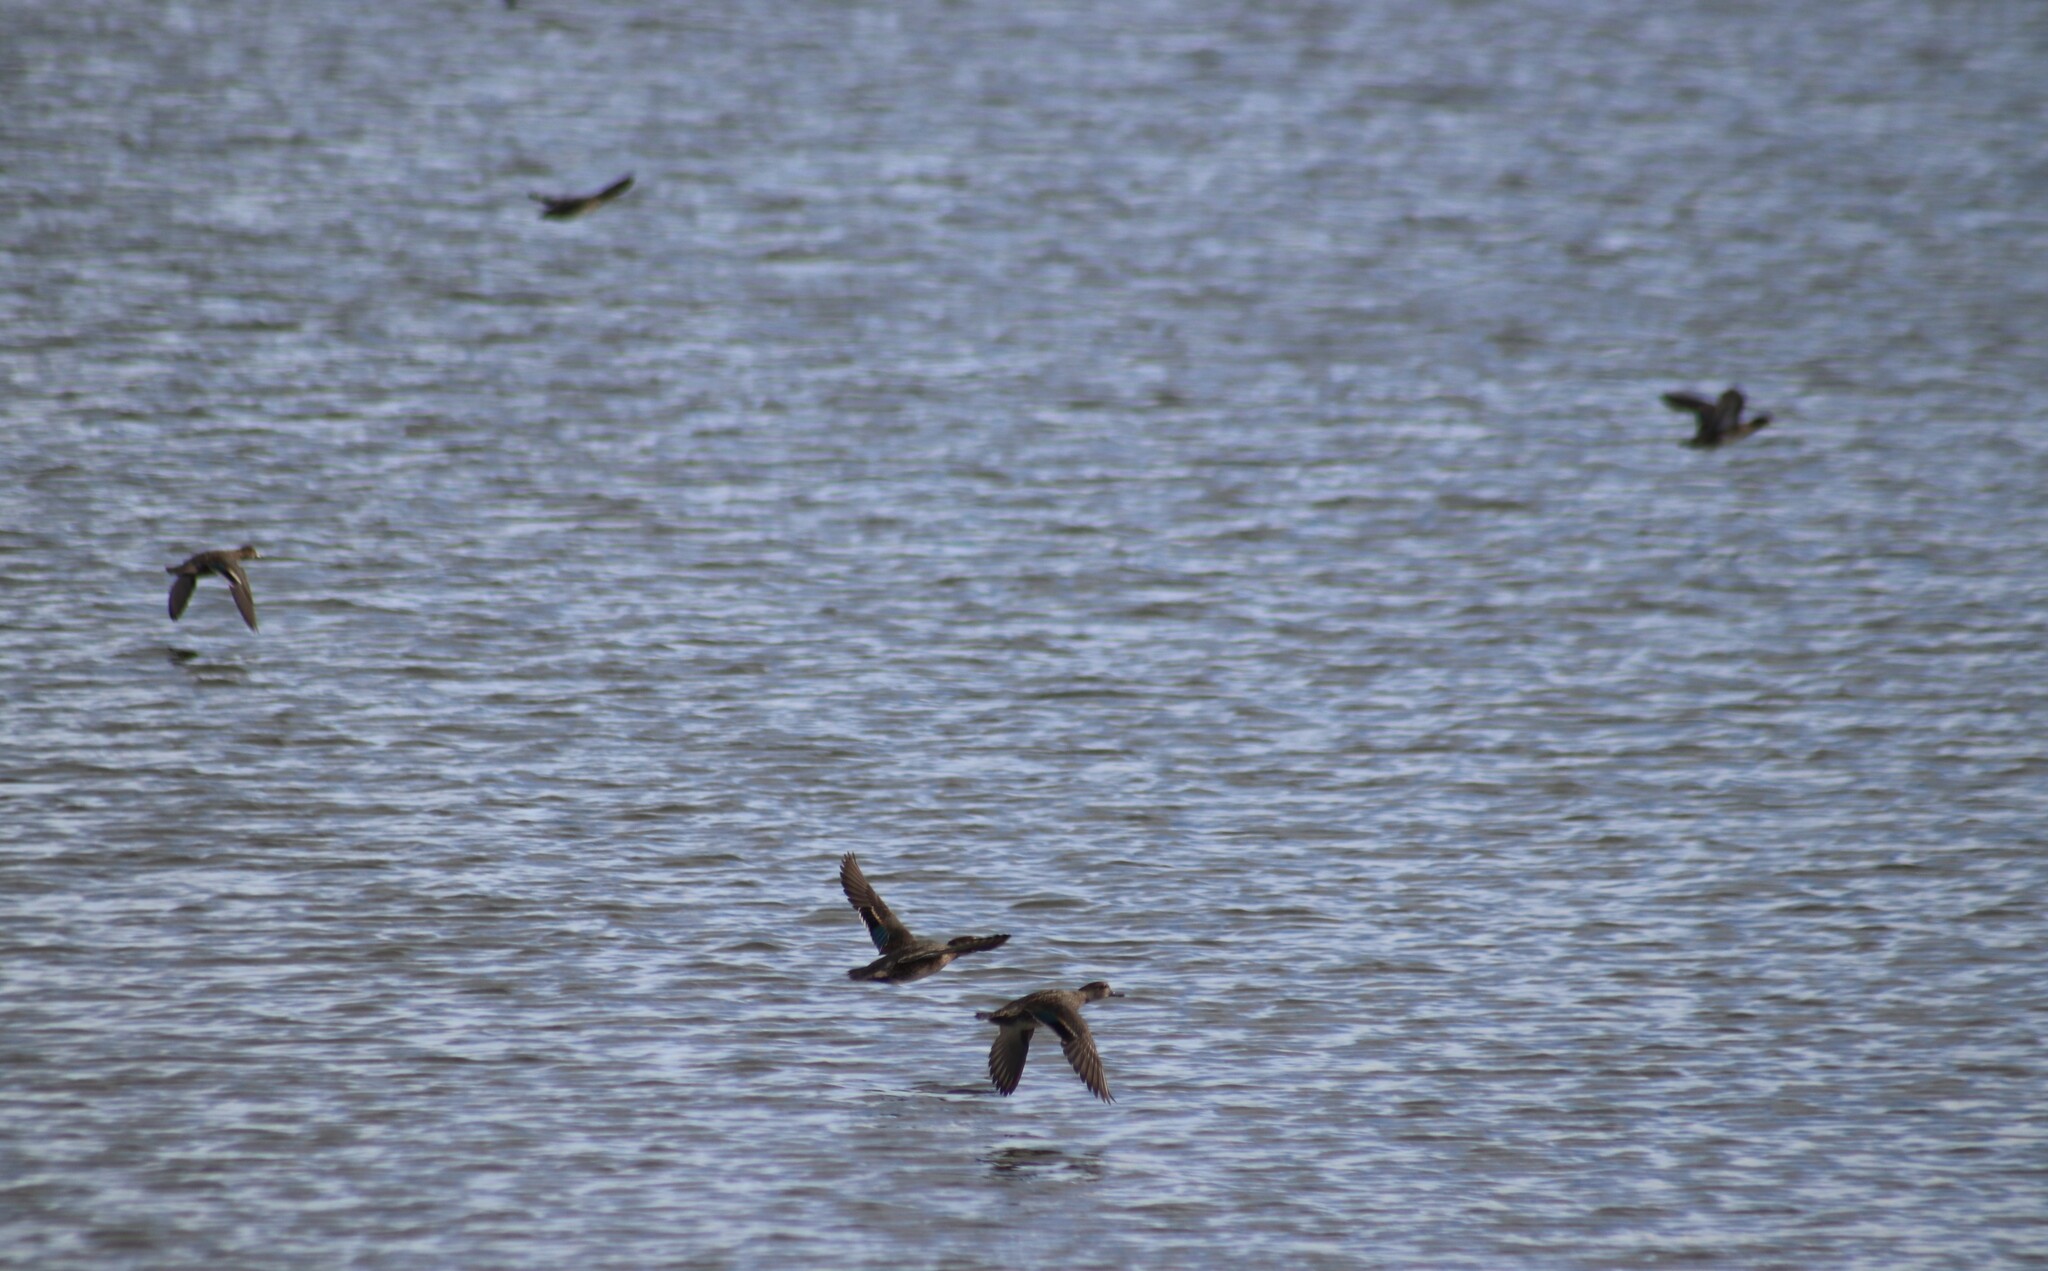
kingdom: Animalia
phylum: Chordata
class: Aves
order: Anseriformes
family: Anatidae
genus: Anas
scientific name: Anas carolinensis
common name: Green-winged teal
